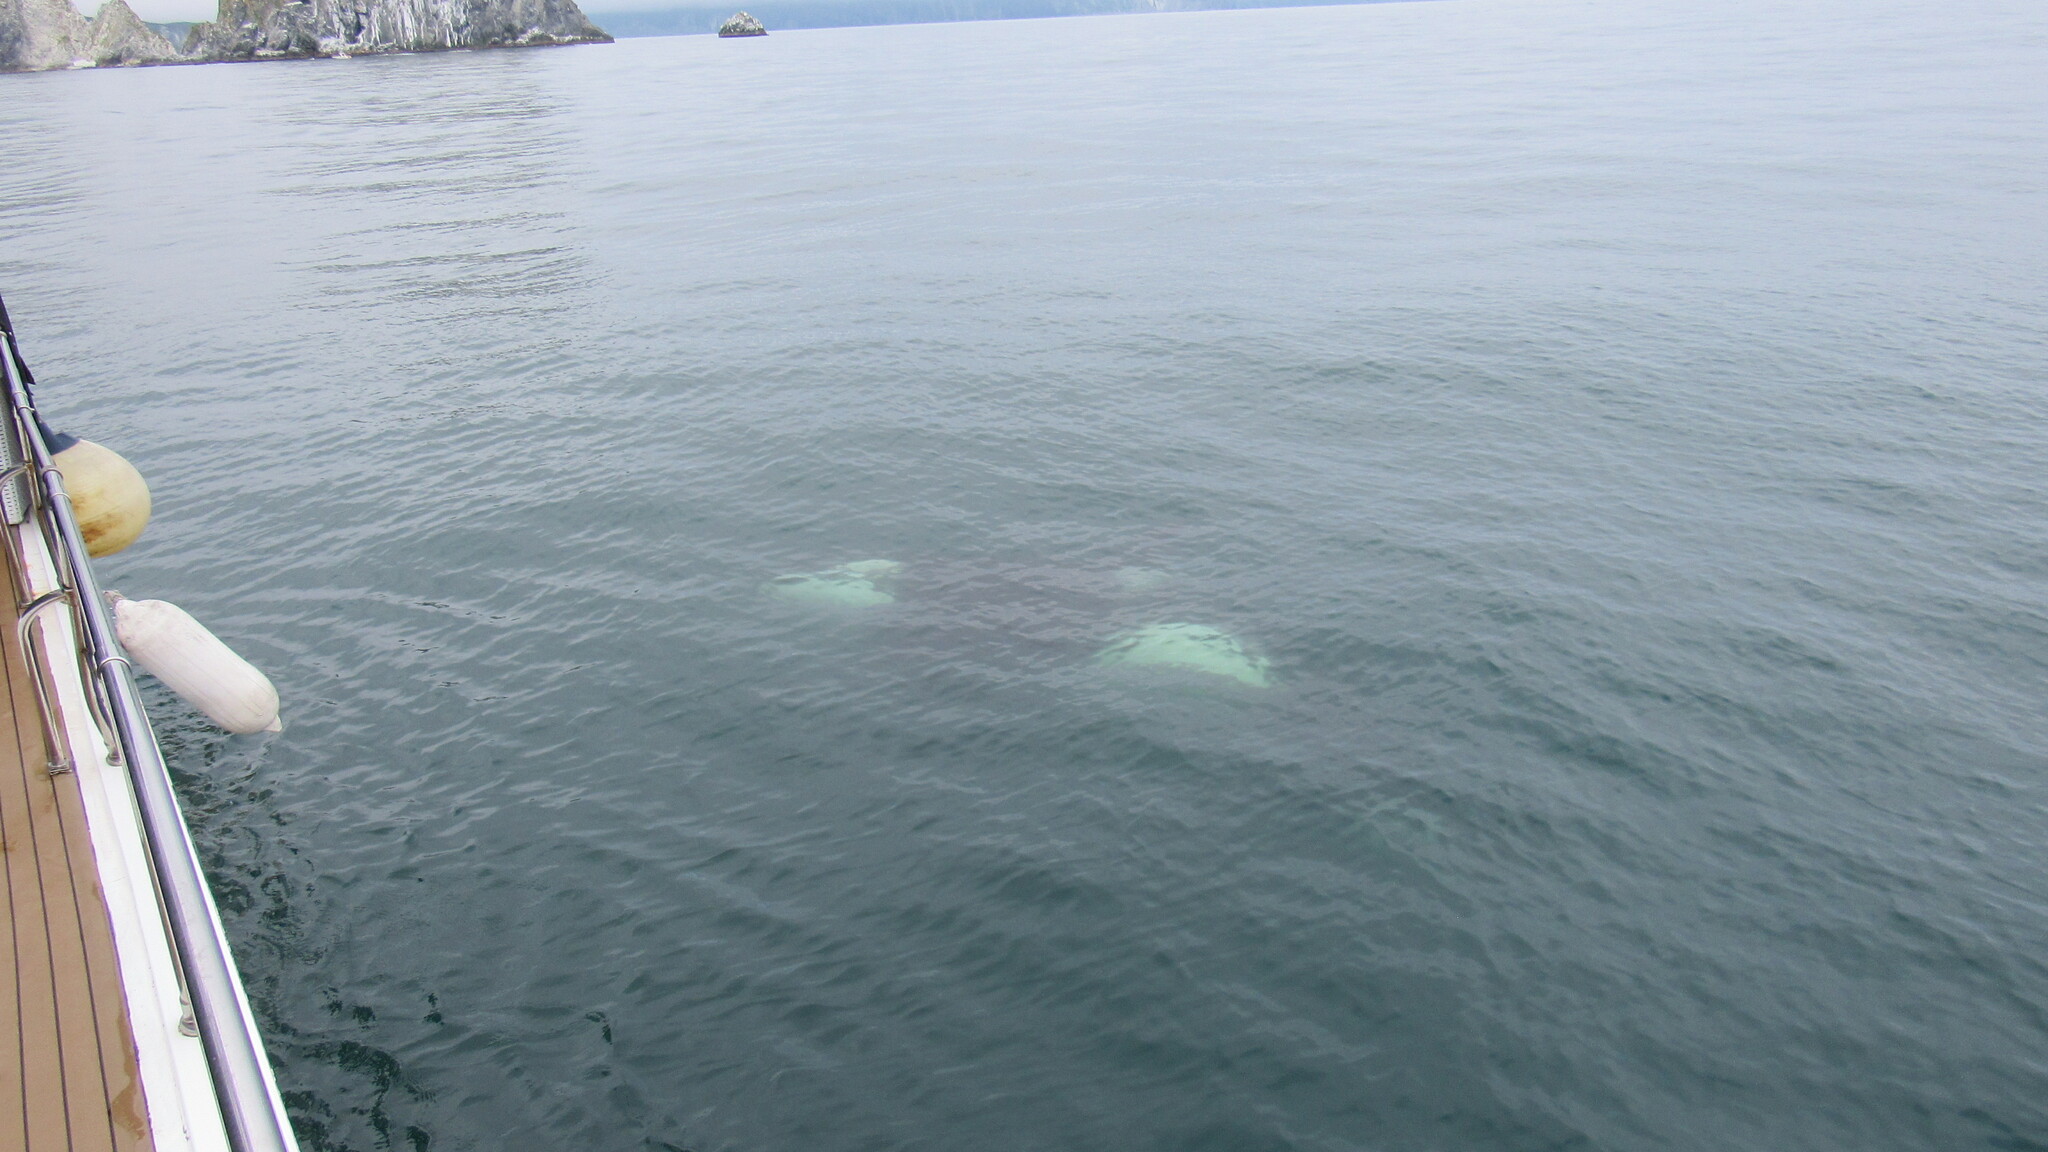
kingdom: Animalia
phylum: Chordata
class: Mammalia
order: Cetacea
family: Delphinidae
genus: Orcinus
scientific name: Orcinus orca
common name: Killer whale
